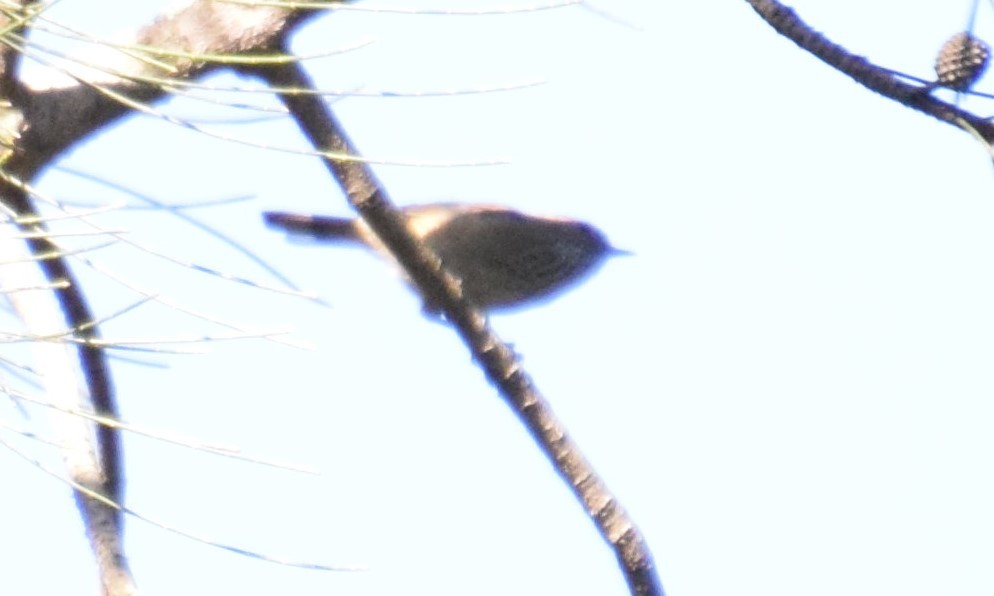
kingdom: Animalia
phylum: Chordata
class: Aves
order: Passeriformes
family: Acanthizidae
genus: Acanthiza
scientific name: Acanthiza pusilla
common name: Brown thornbill
